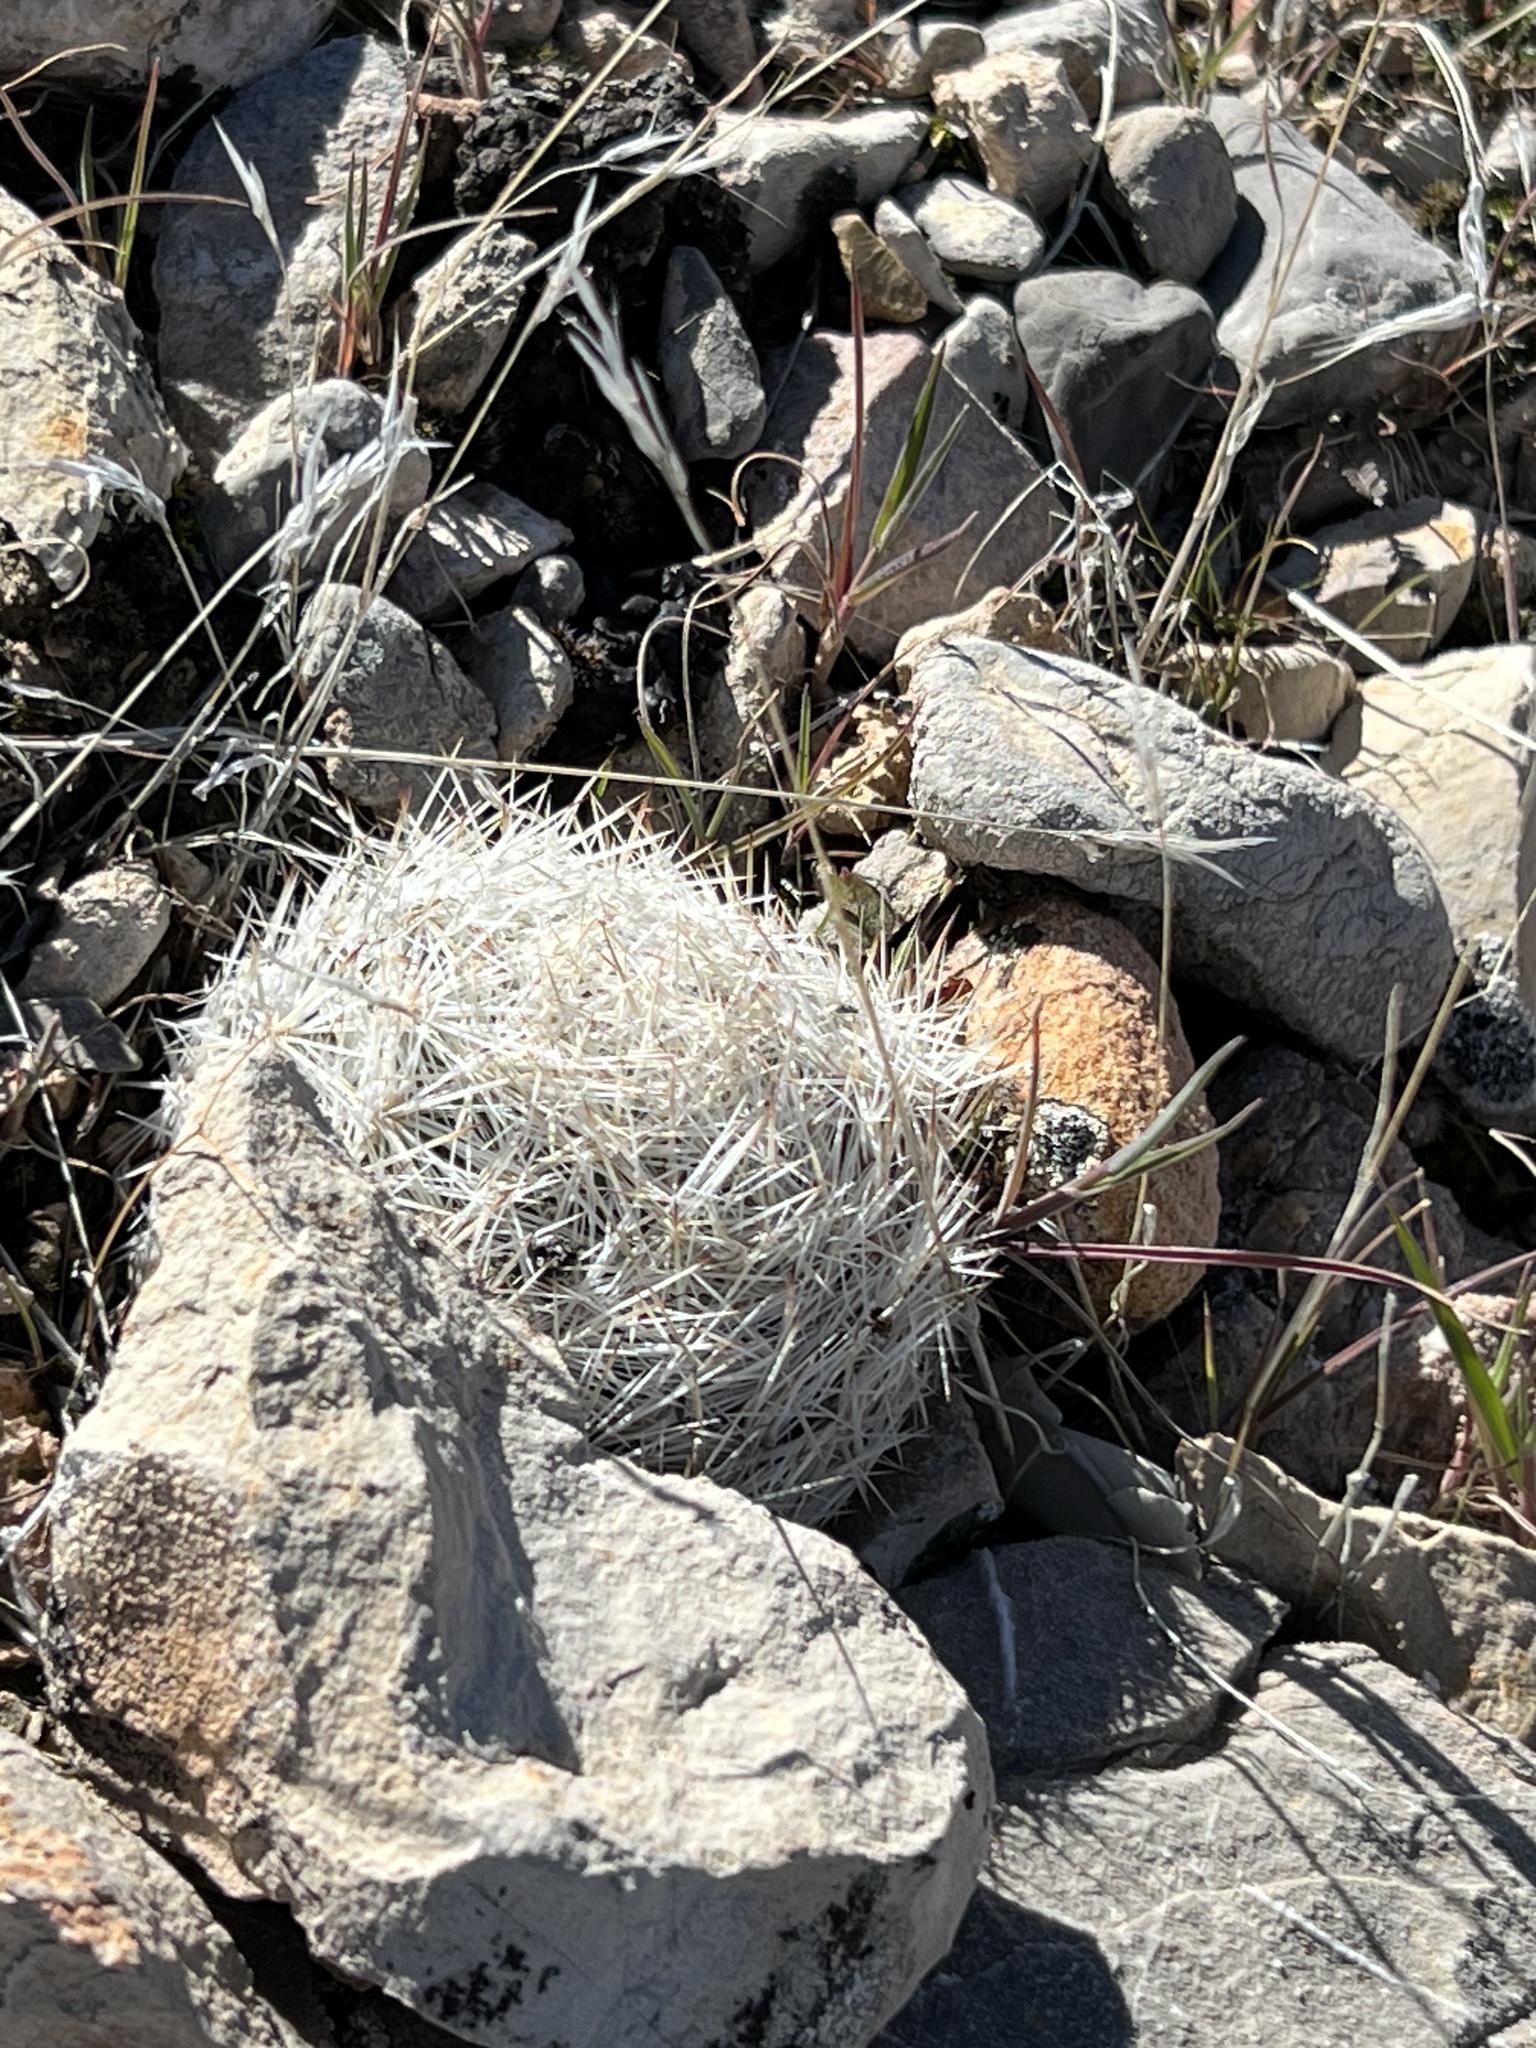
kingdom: Plantae
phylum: Tracheophyta
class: Magnoliopsida
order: Caryophyllales
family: Cactaceae
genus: Pelecyphora
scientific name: Pelecyphora dasyacantha
